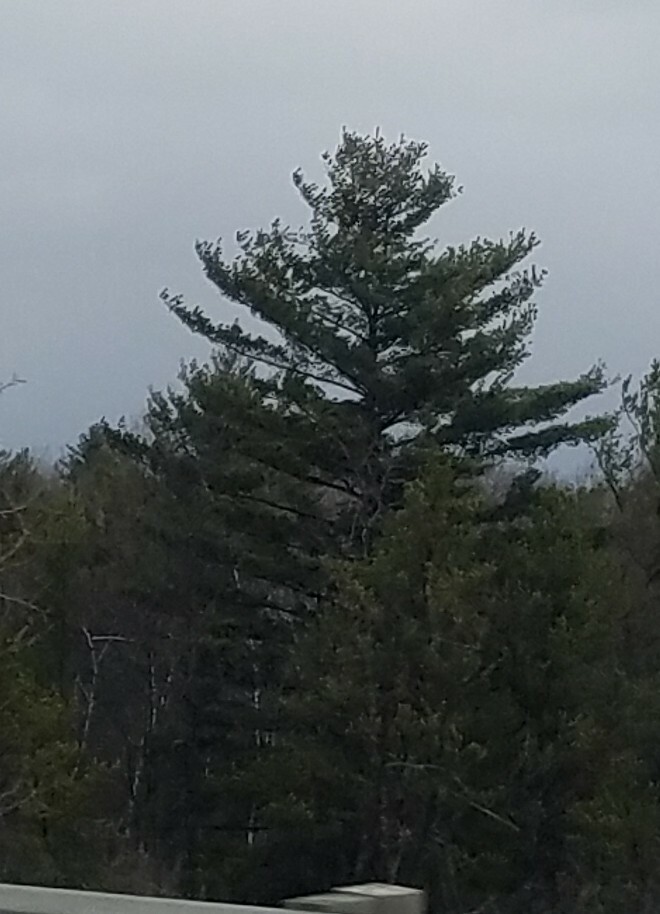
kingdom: Plantae
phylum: Tracheophyta
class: Pinopsida
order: Pinales
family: Pinaceae
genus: Pinus
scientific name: Pinus strobus
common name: Weymouth pine
